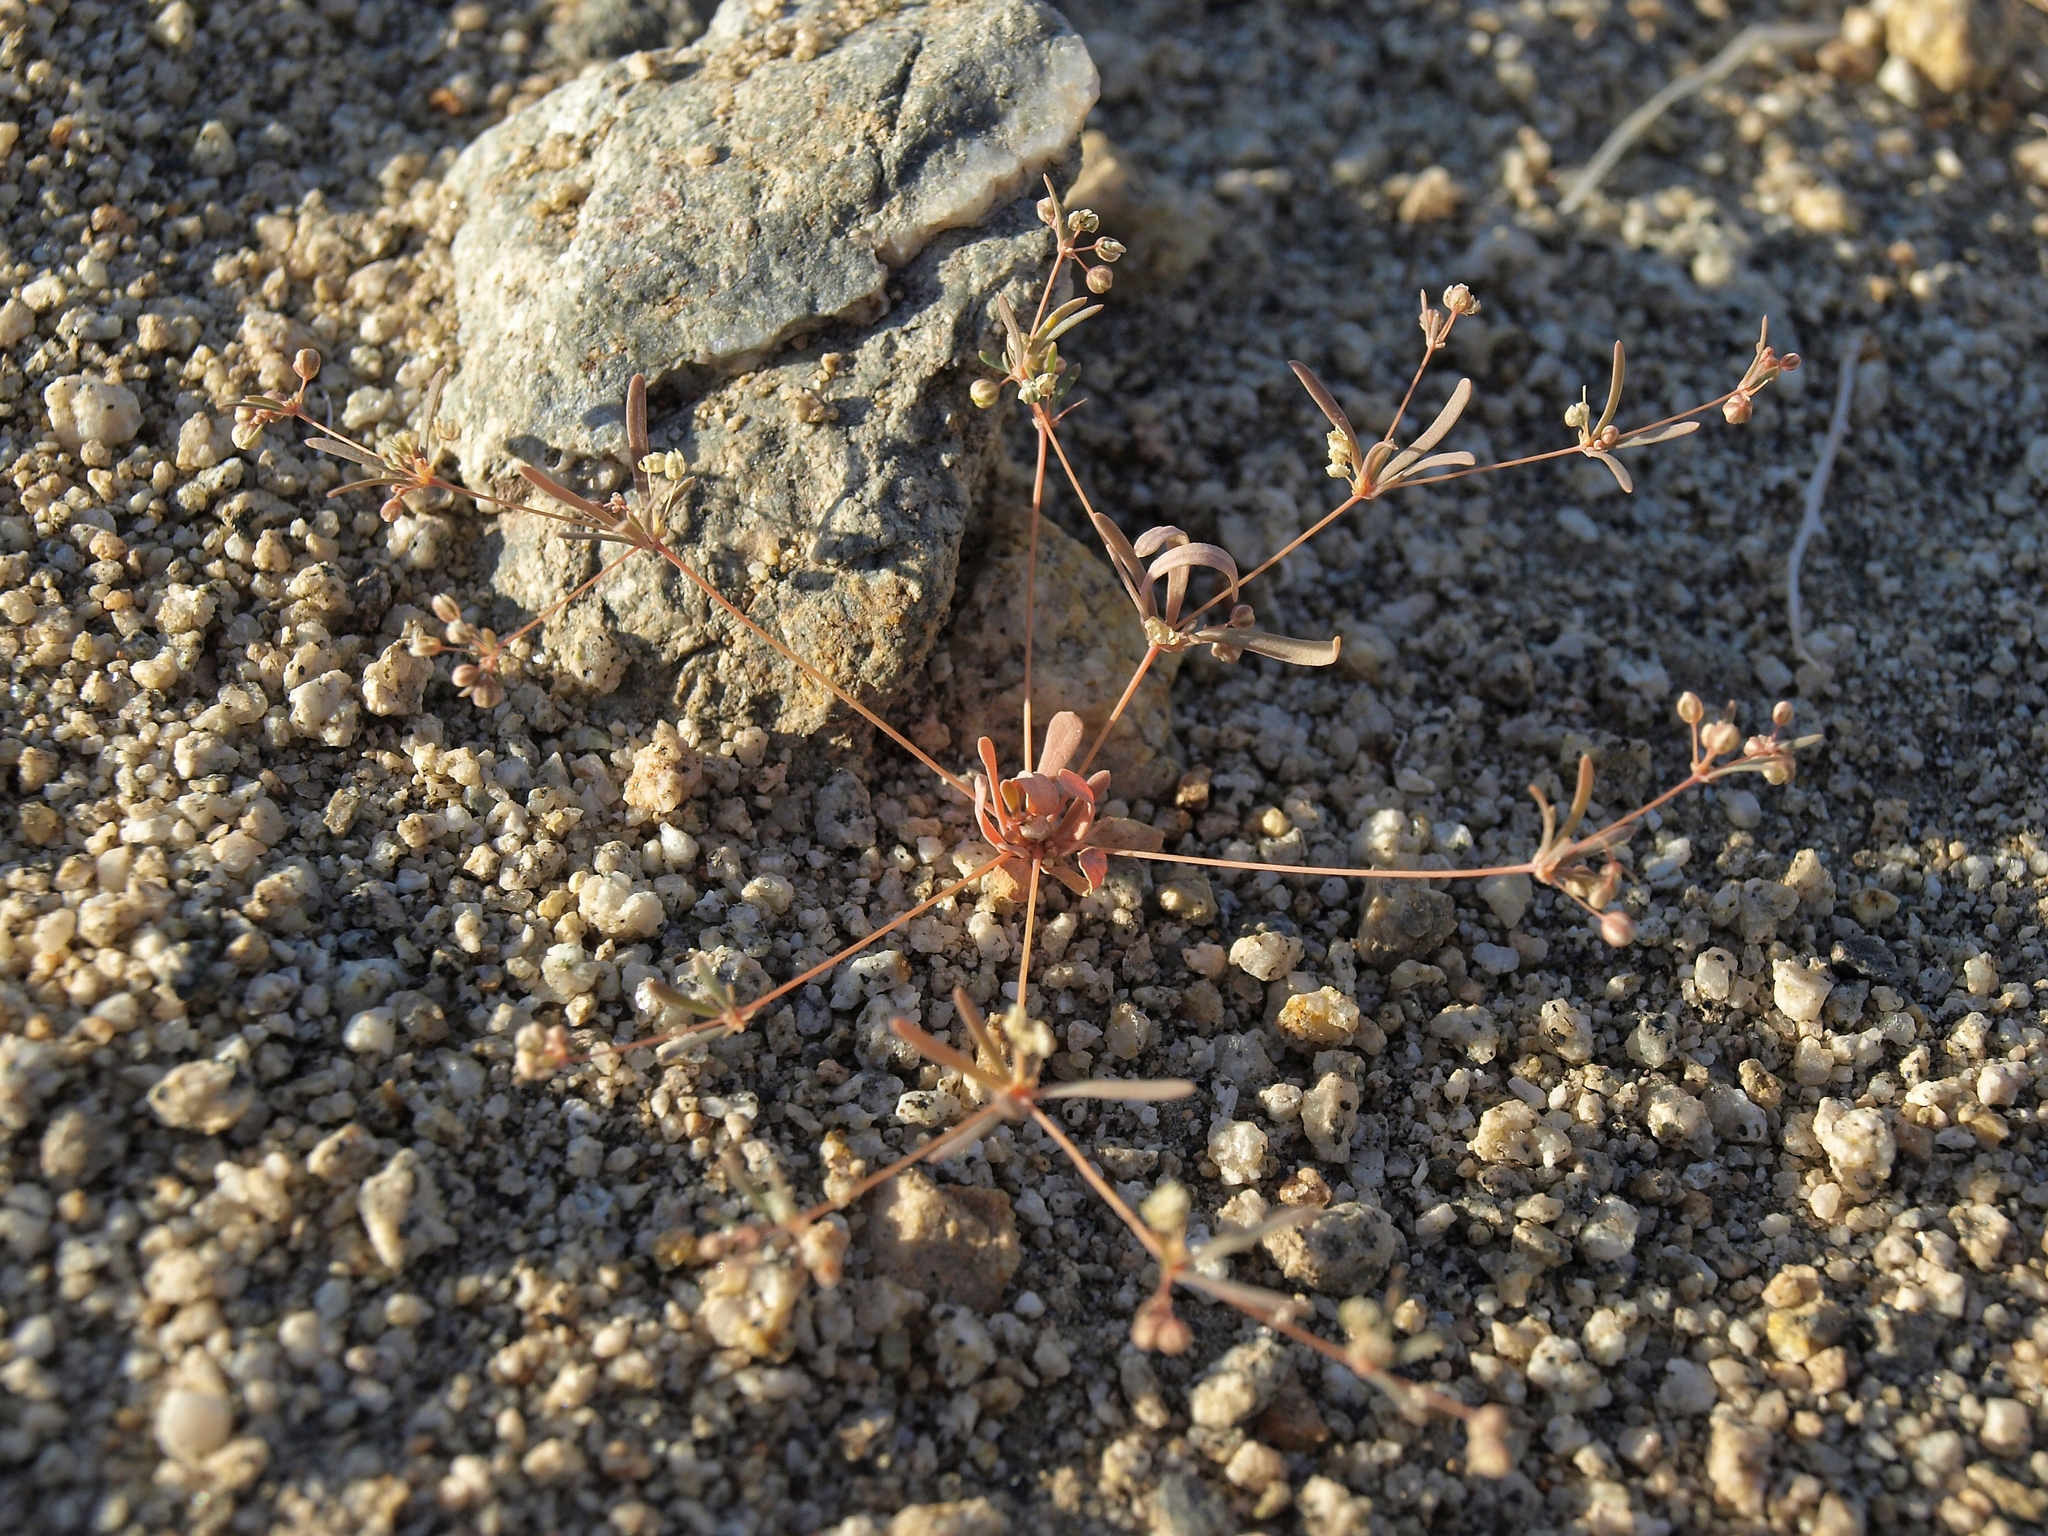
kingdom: Plantae
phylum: Tracheophyta
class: Magnoliopsida
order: Caryophyllales
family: Molluginaceae
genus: Hypertelis
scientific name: Hypertelis umbellata
